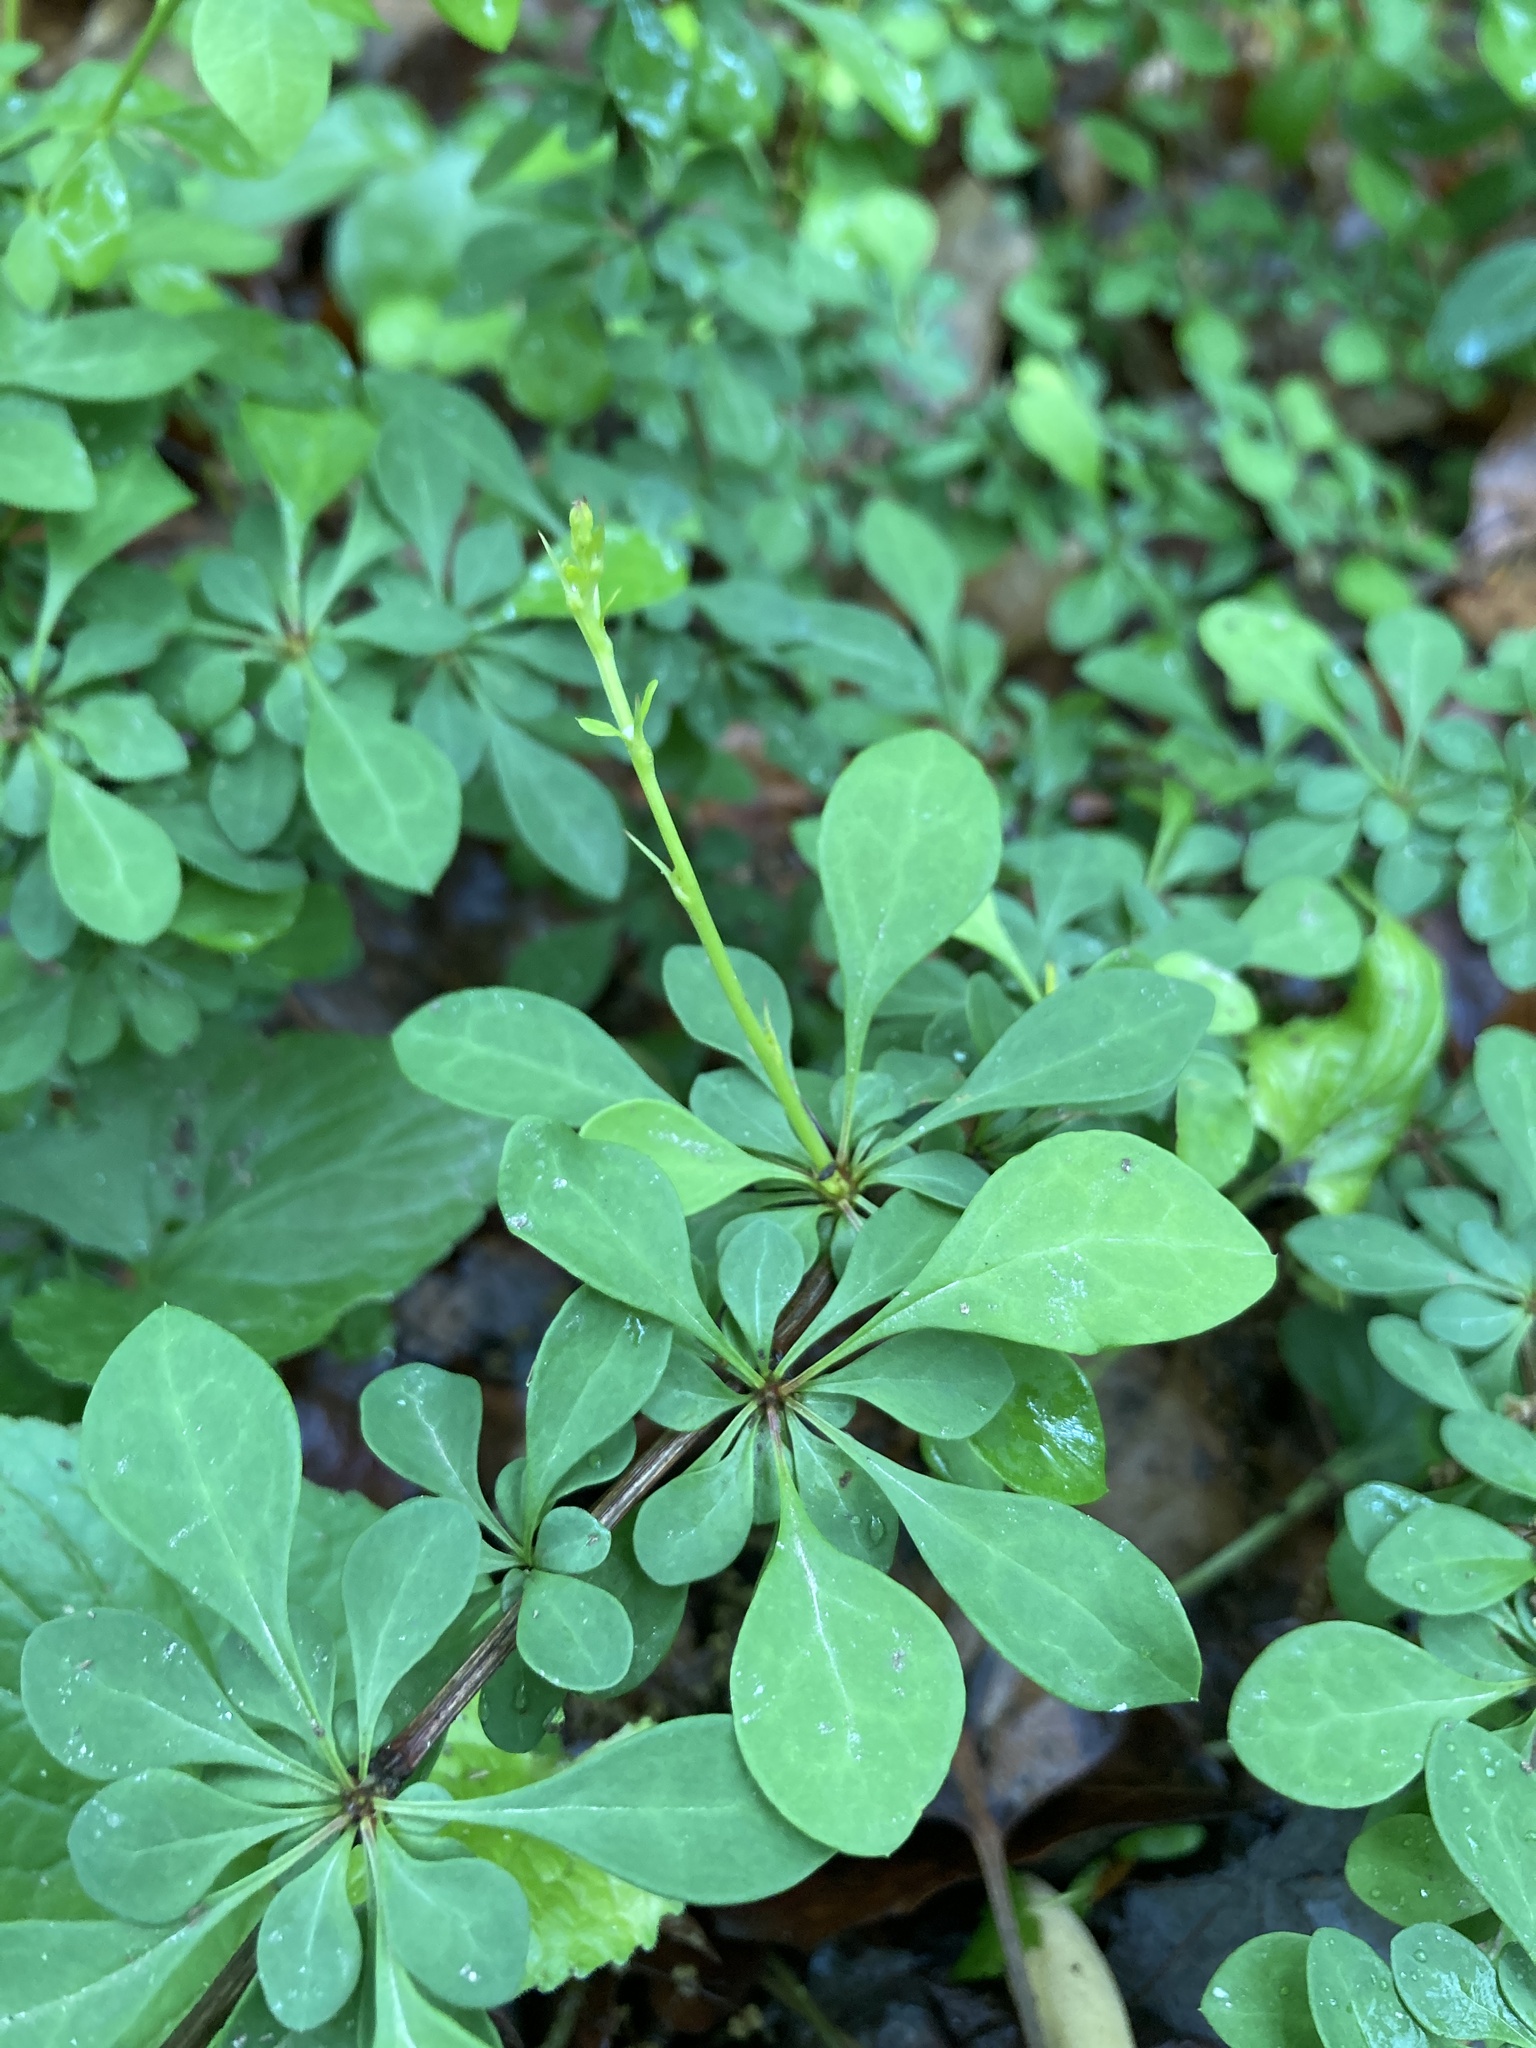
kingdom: Plantae
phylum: Tracheophyta
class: Magnoliopsida
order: Ranunculales
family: Berberidaceae
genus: Berberis
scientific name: Berberis thunbergii
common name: Japanese barberry
